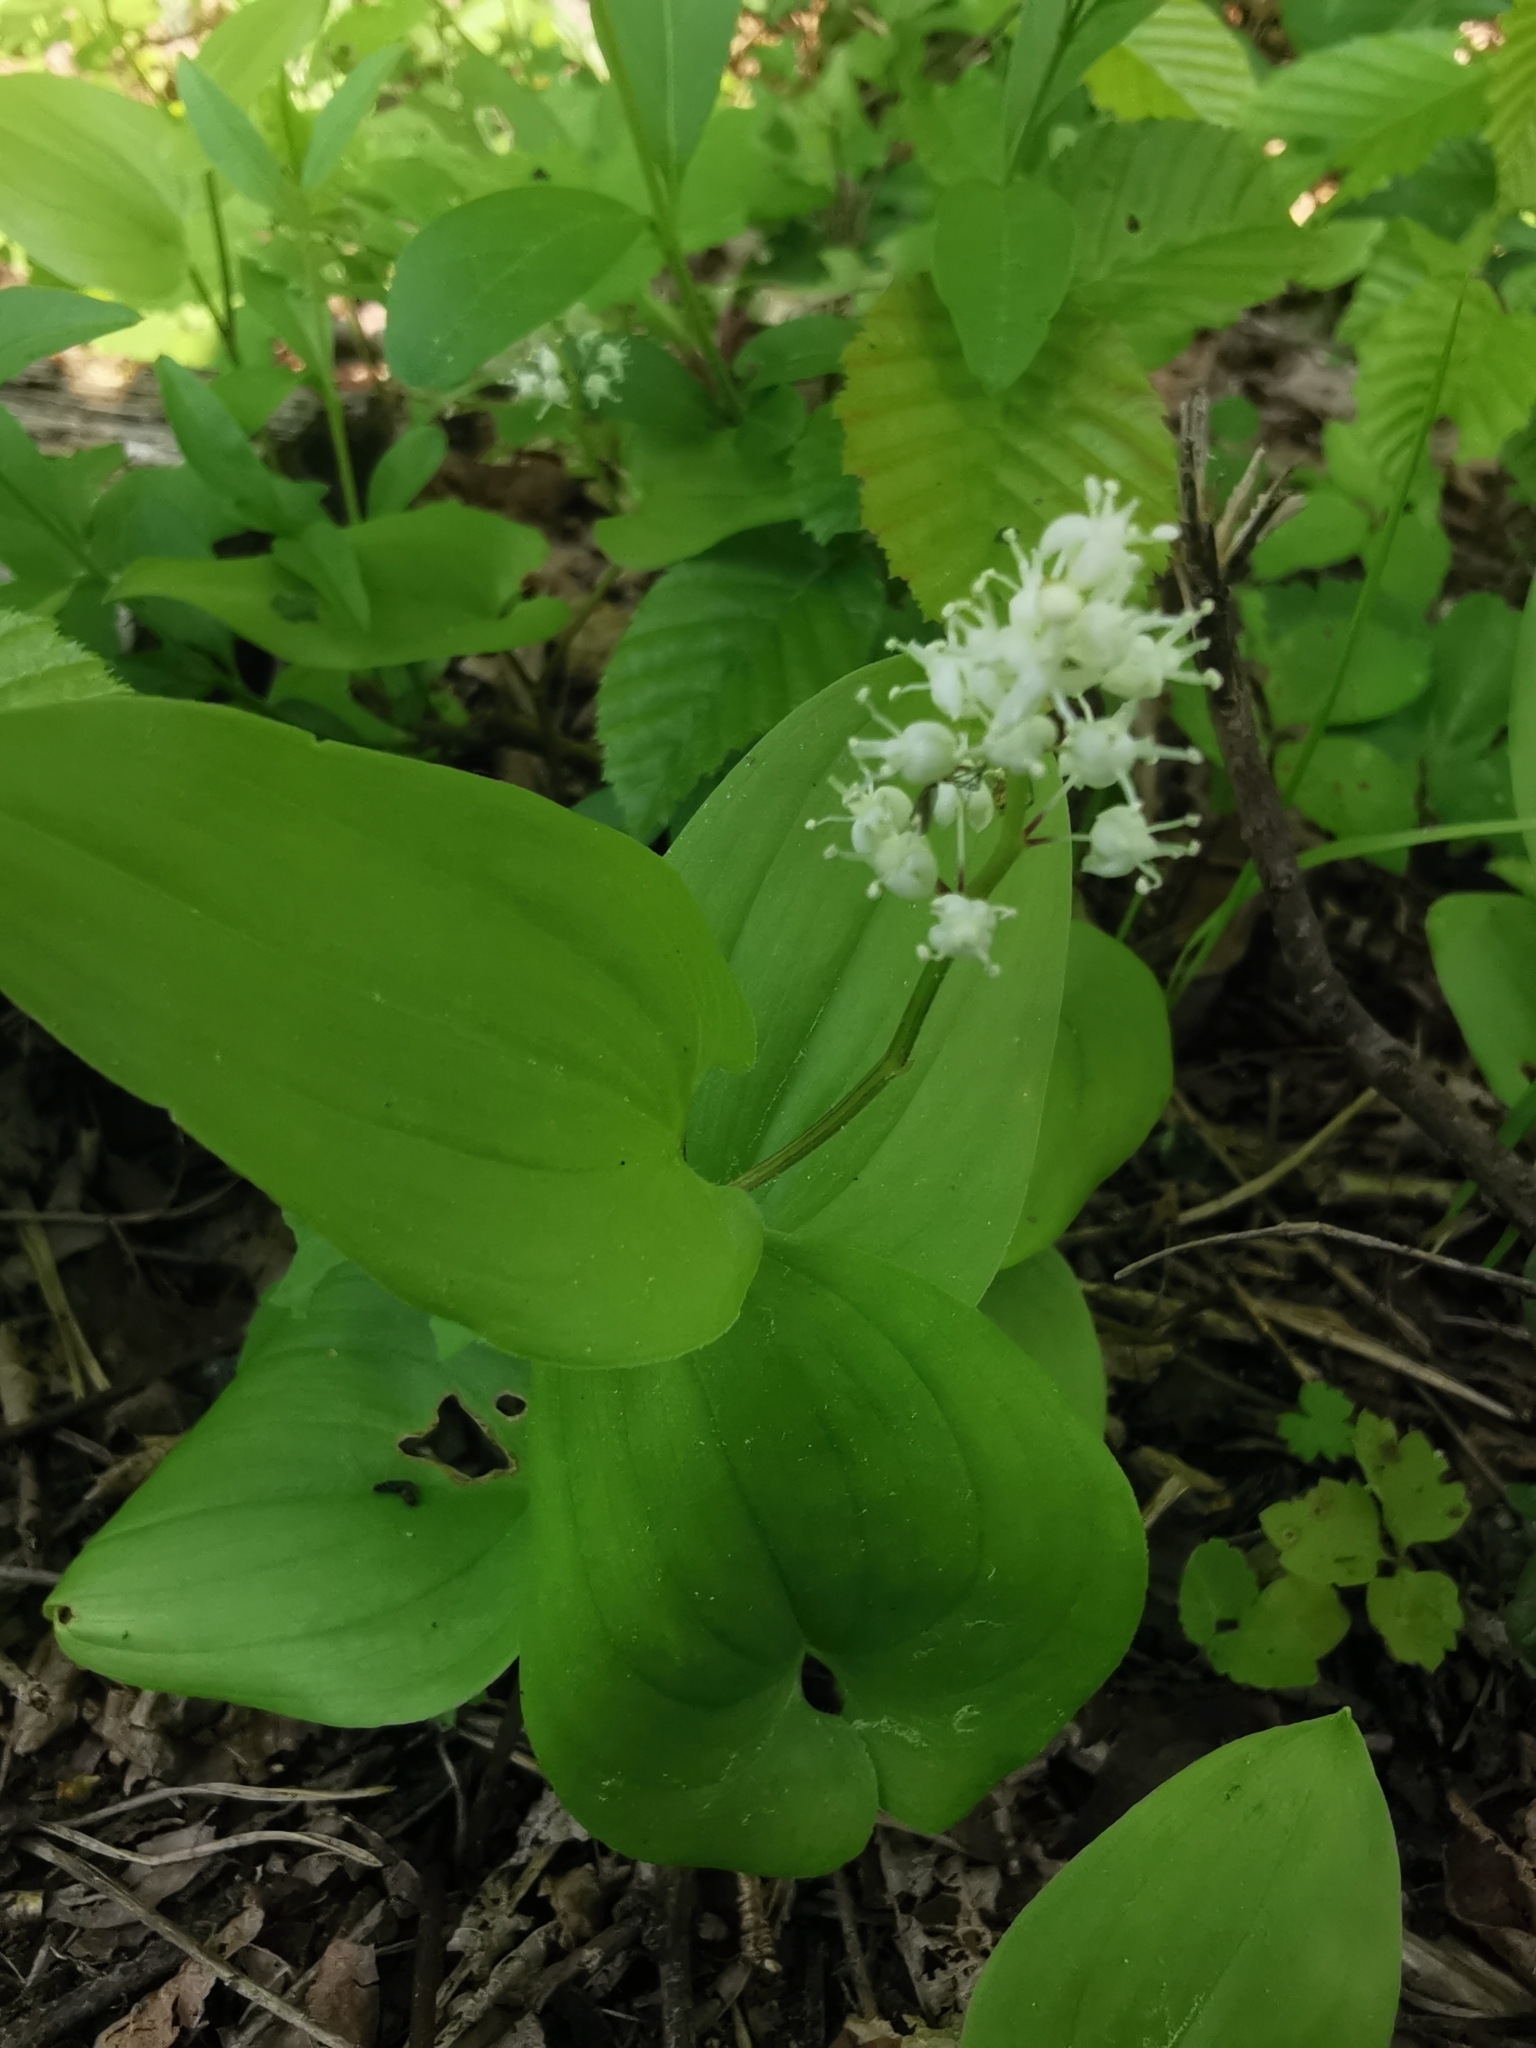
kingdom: Plantae
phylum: Tracheophyta
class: Liliopsida
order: Asparagales
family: Asparagaceae
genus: Maianthemum
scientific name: Maianthemum bifolium
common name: May lily
